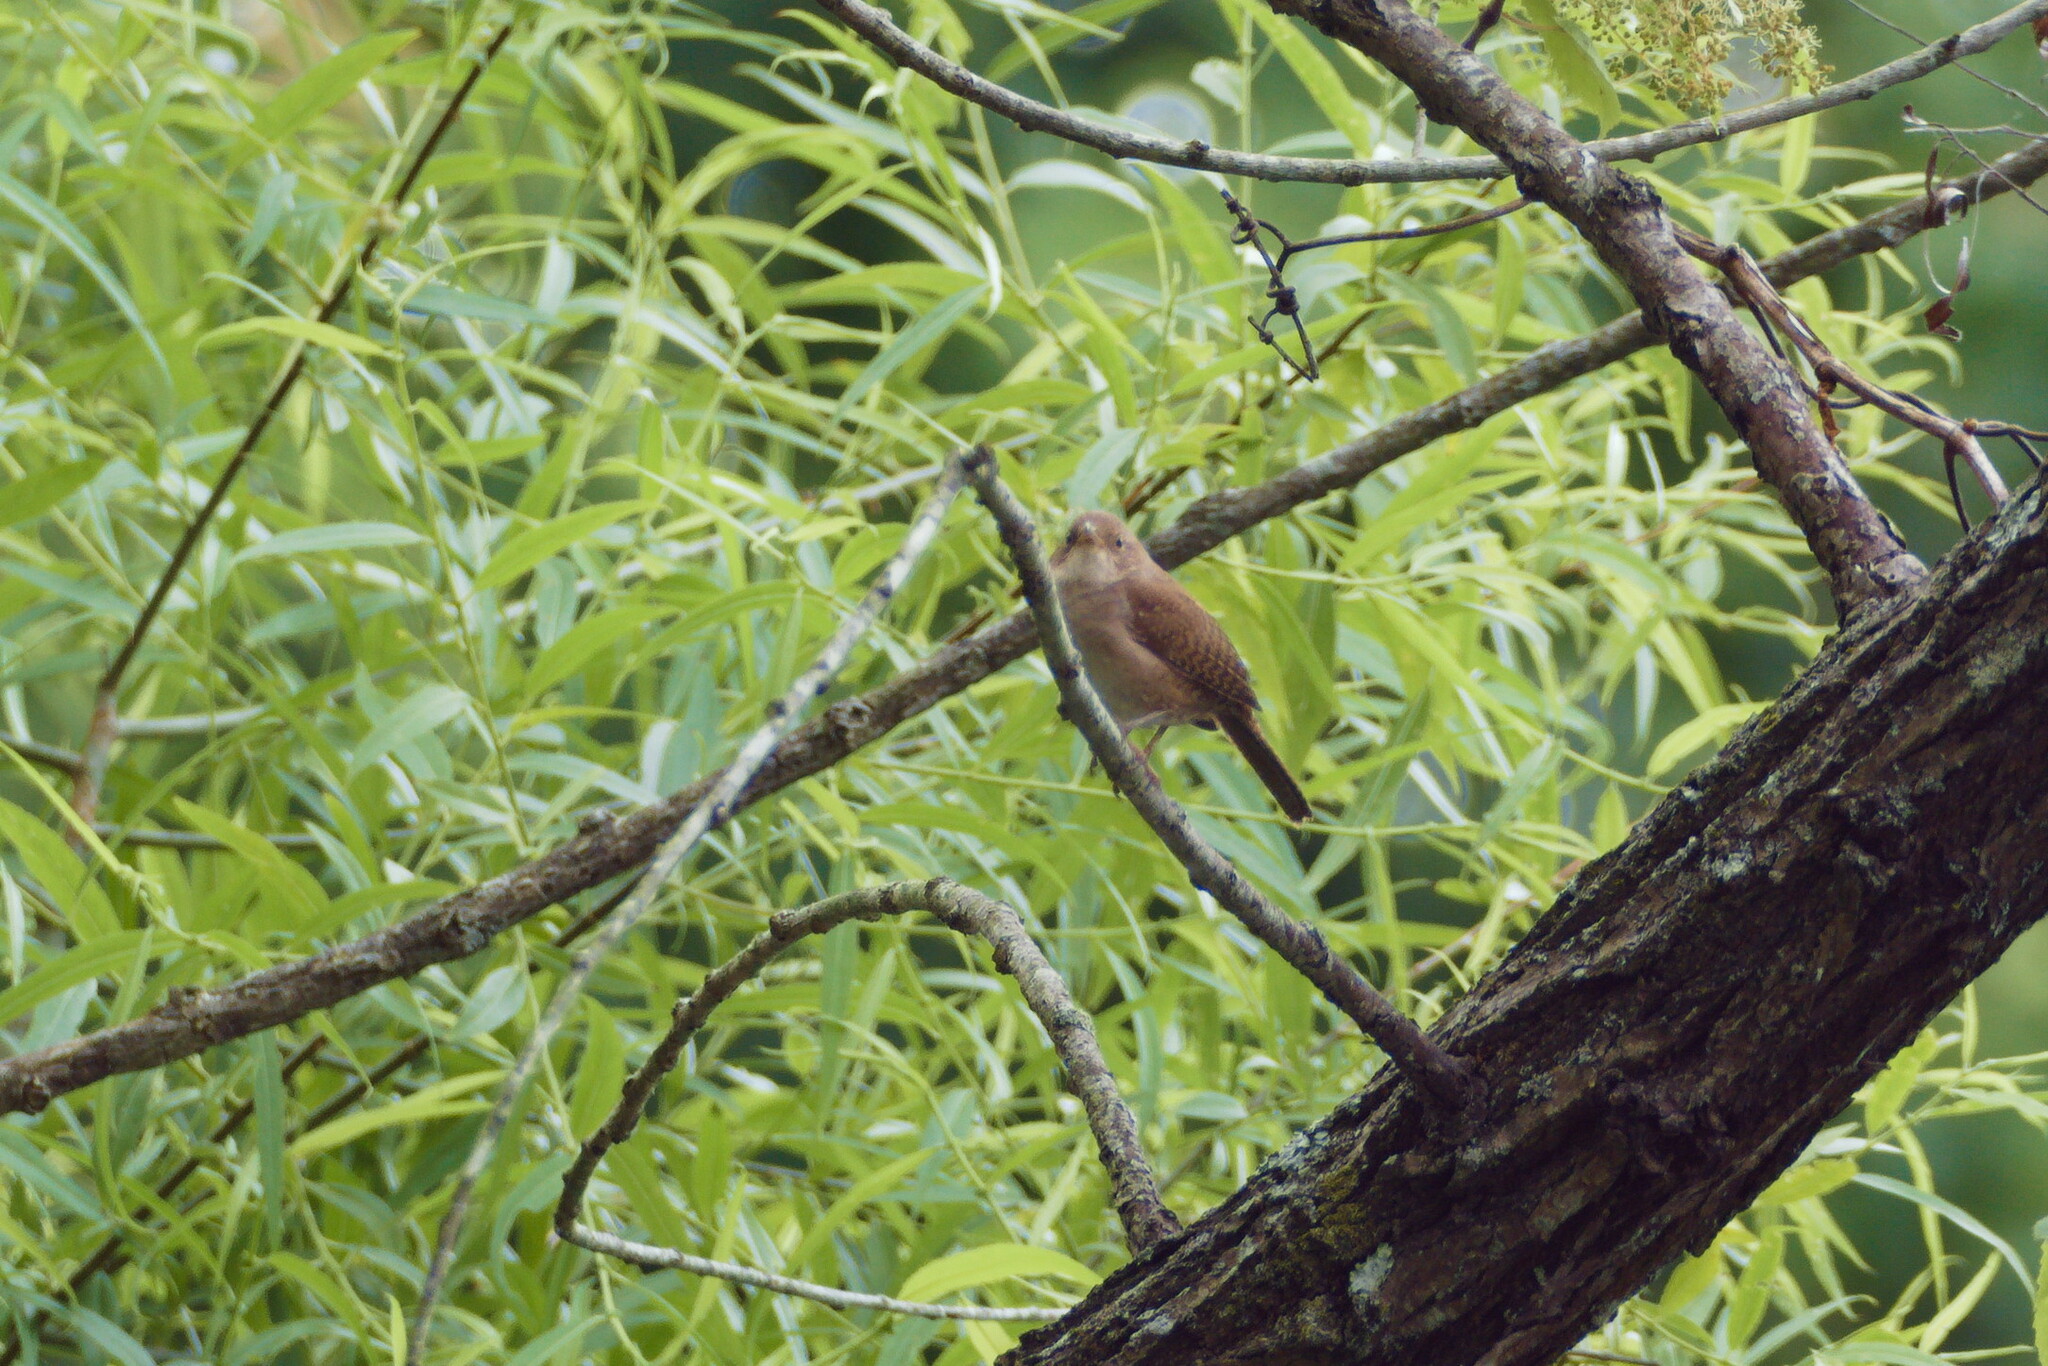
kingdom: Animalia
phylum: Chordata
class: Aves
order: Passeriformes
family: Troglodytidae
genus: Troglodytes
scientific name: Troglodytes aedon
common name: House wren
